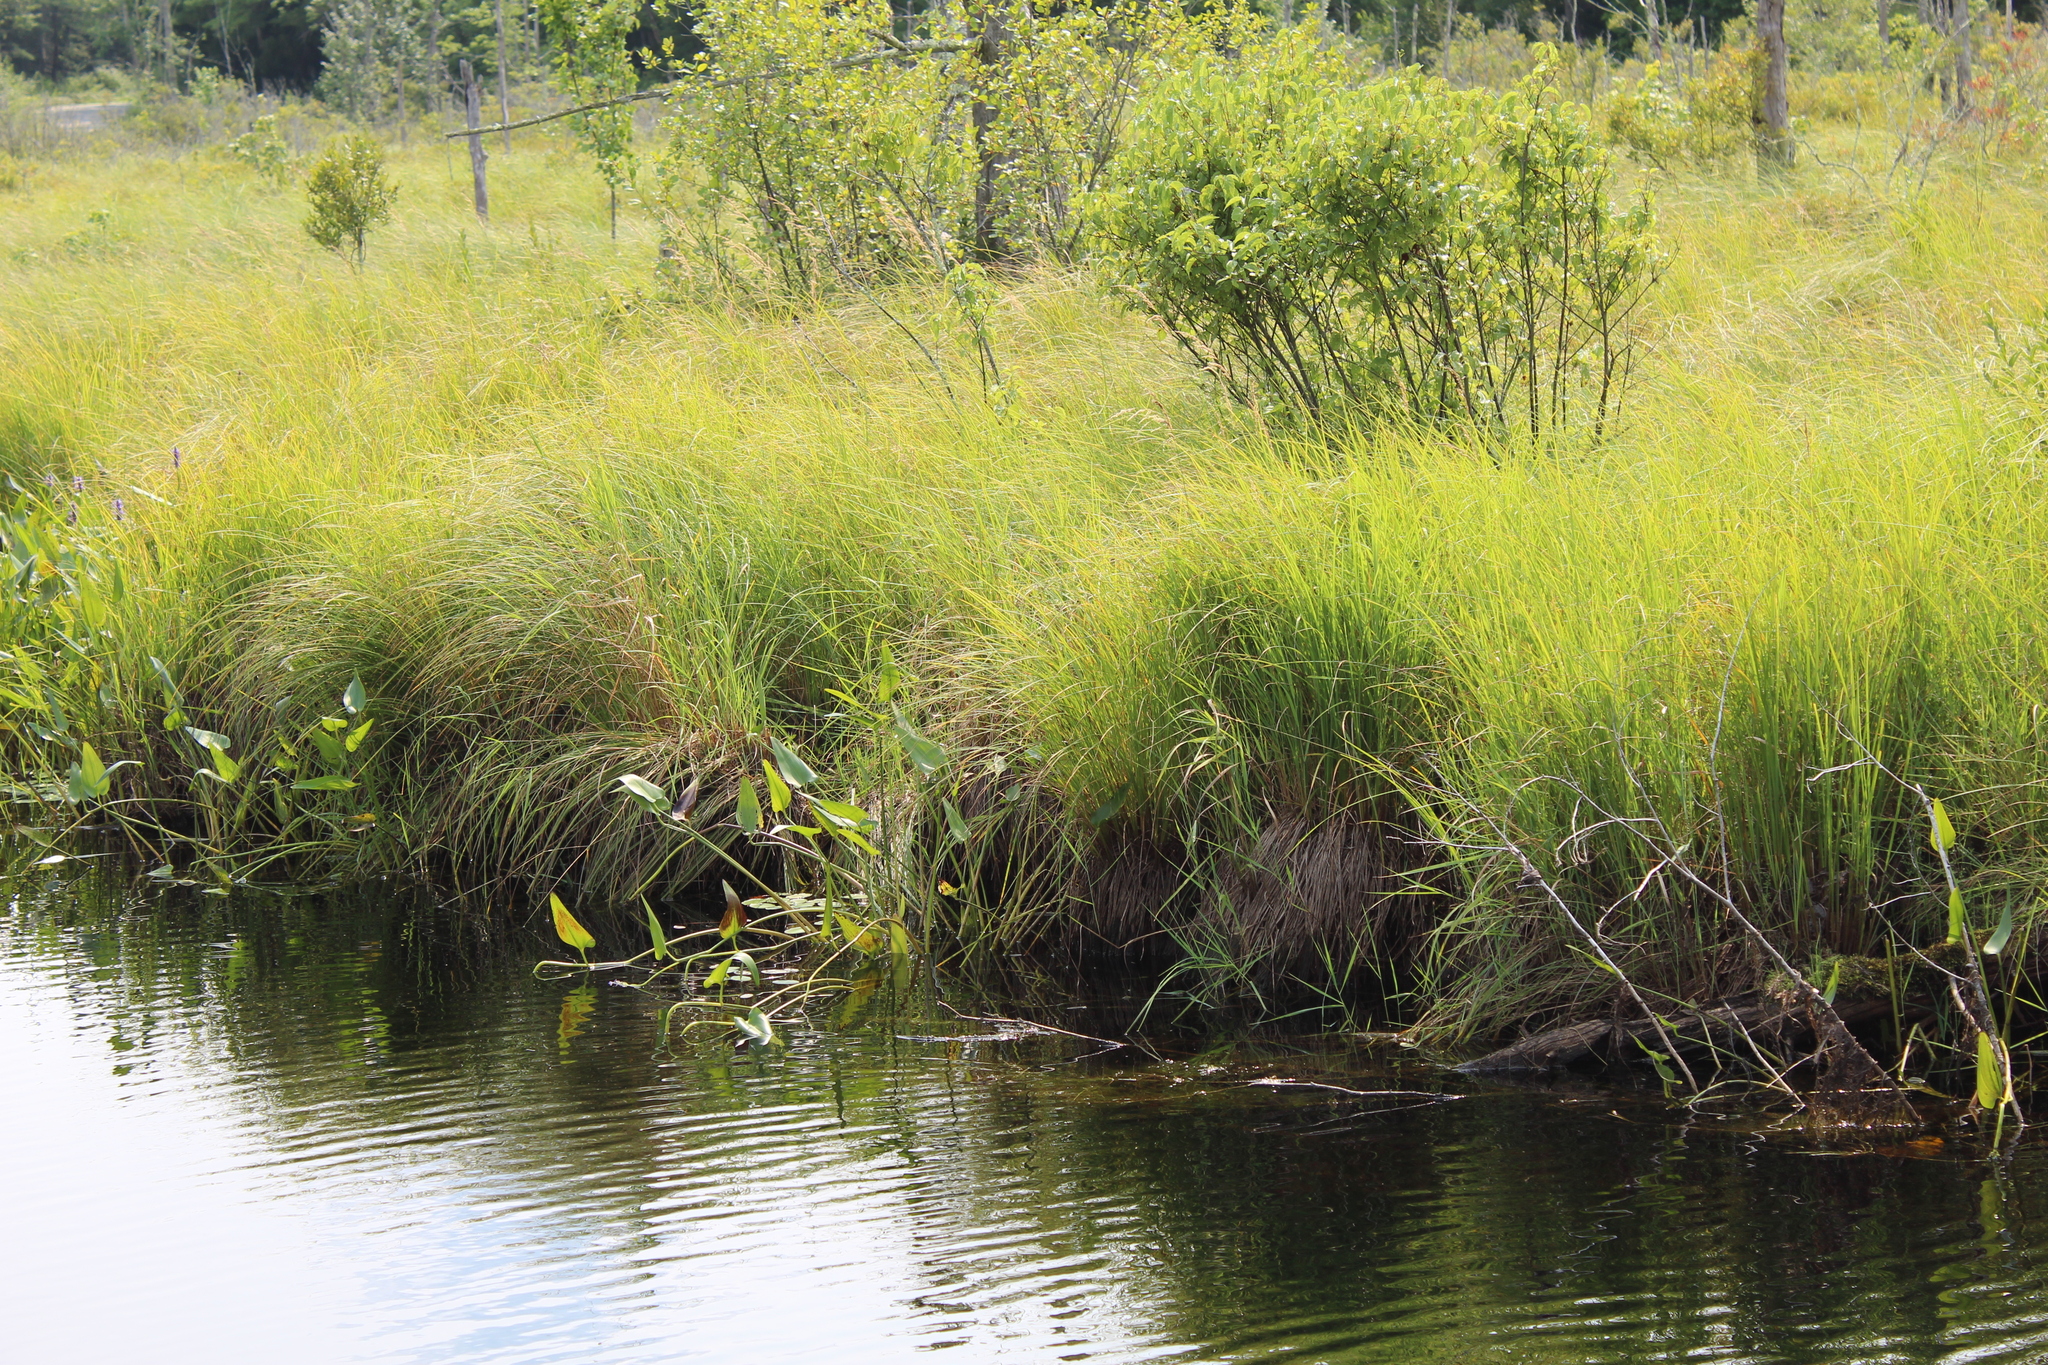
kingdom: Plantae
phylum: Tracheophyta
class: Liliopsida
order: Commelinales
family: Pontederiaceae
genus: Pontederia
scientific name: Pontederia cordata
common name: Pickerelweed
